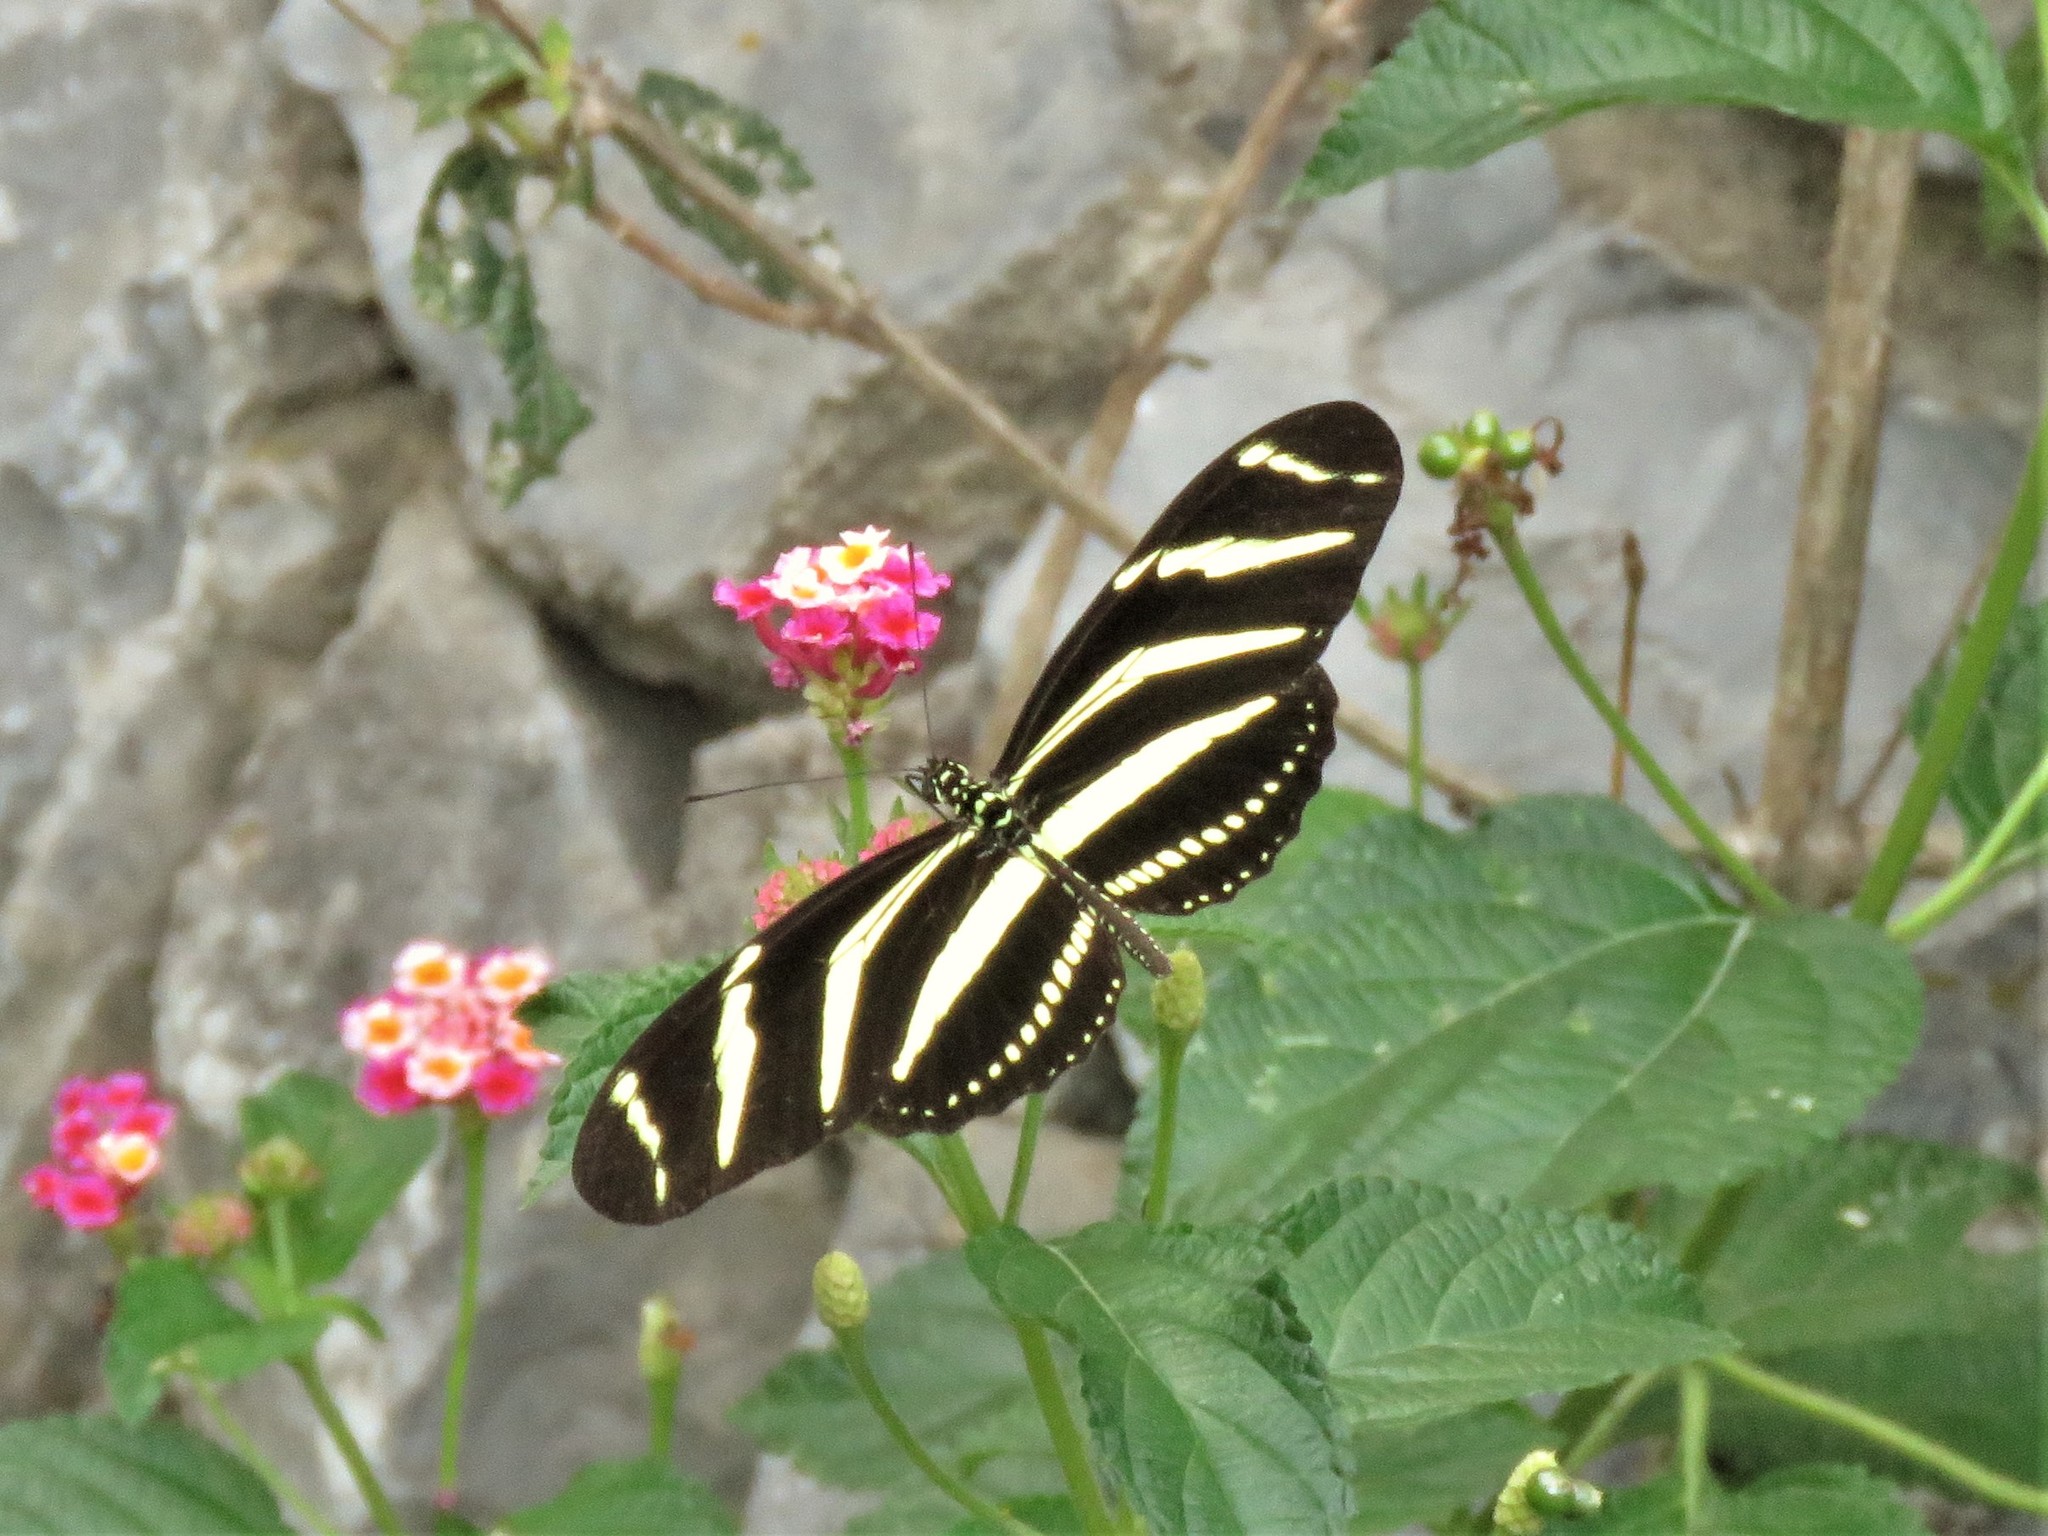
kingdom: Animalia
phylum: Arthropoda
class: Insecta
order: Lepidoptera
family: Nymphalidae
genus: Heliconius
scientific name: Heliconius charithonia
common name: Zebra long wing
